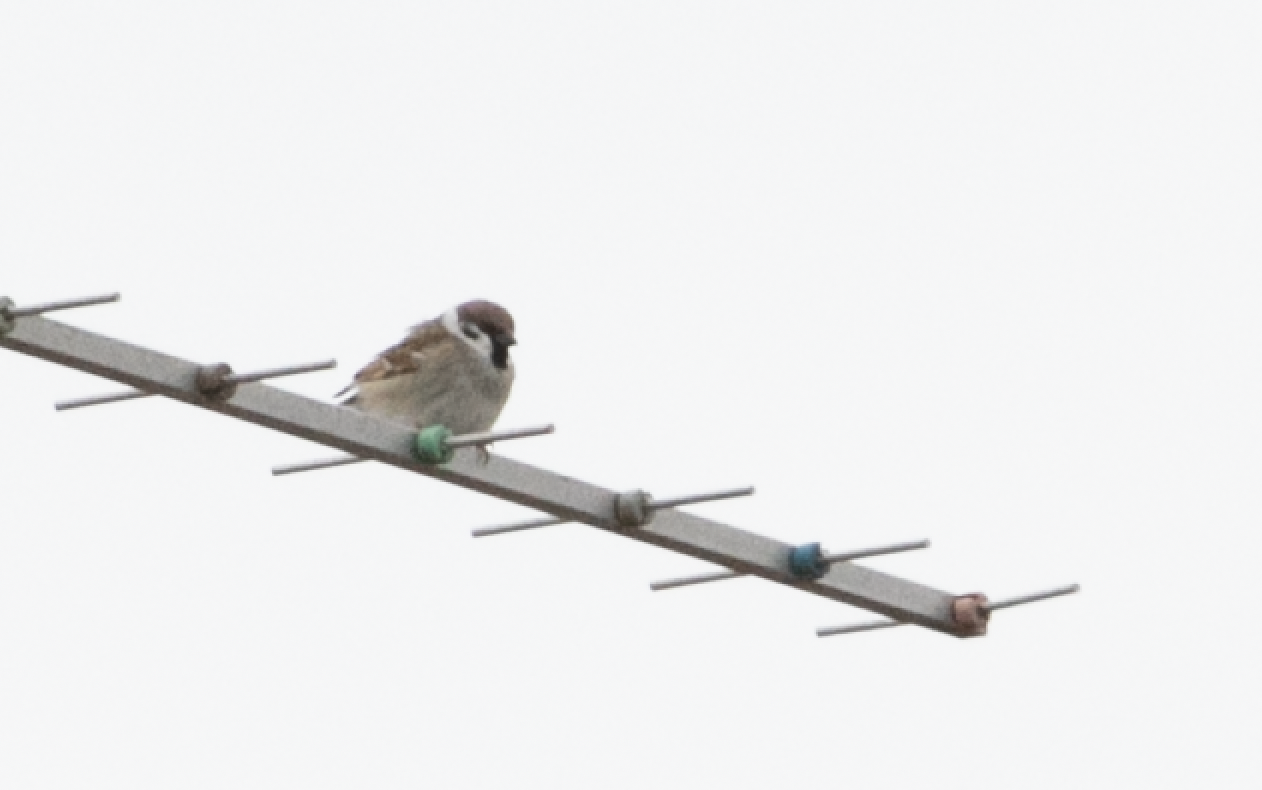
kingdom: Animalia
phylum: Chordata
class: Aves
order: Passeriformes
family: Passeridae
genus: Passer
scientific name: Passer montanus
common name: Eurasian tree sparrow
